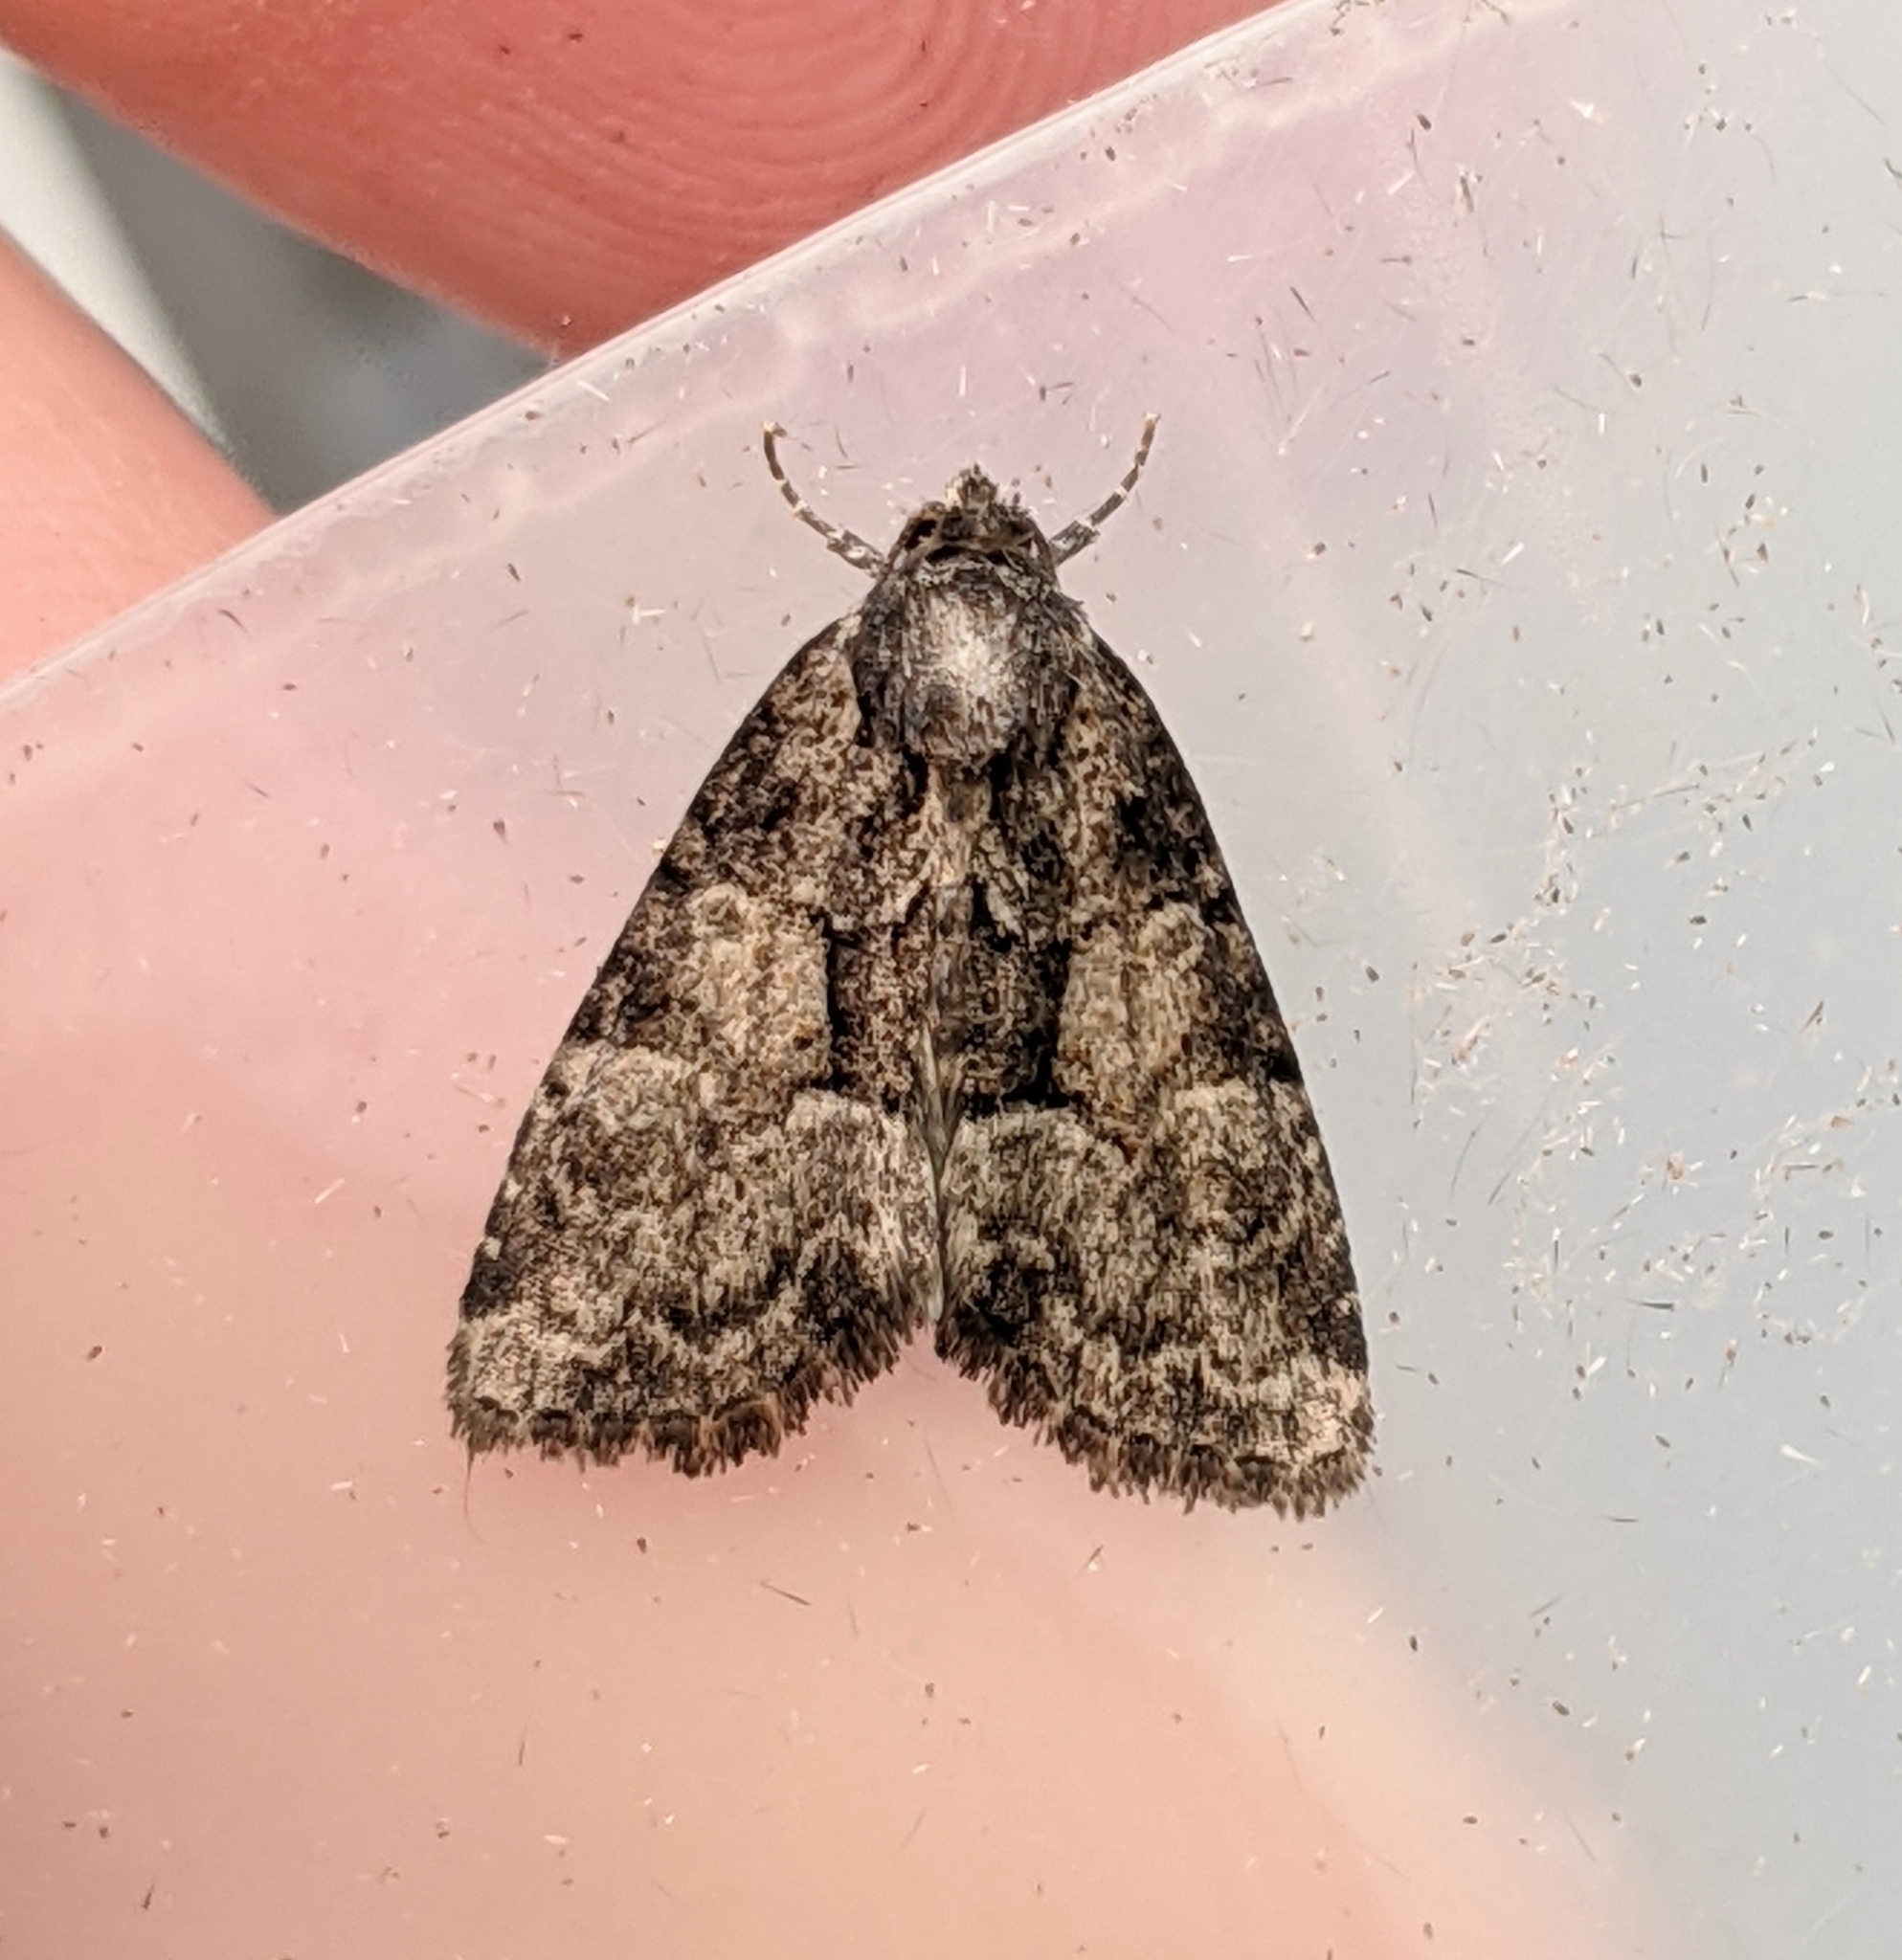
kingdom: Animalia
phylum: Arthropoda
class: Insecta
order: Lepidoptera
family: Noctuidae
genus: Neoligia
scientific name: Neoligia subjuncta
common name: Connected brocade
